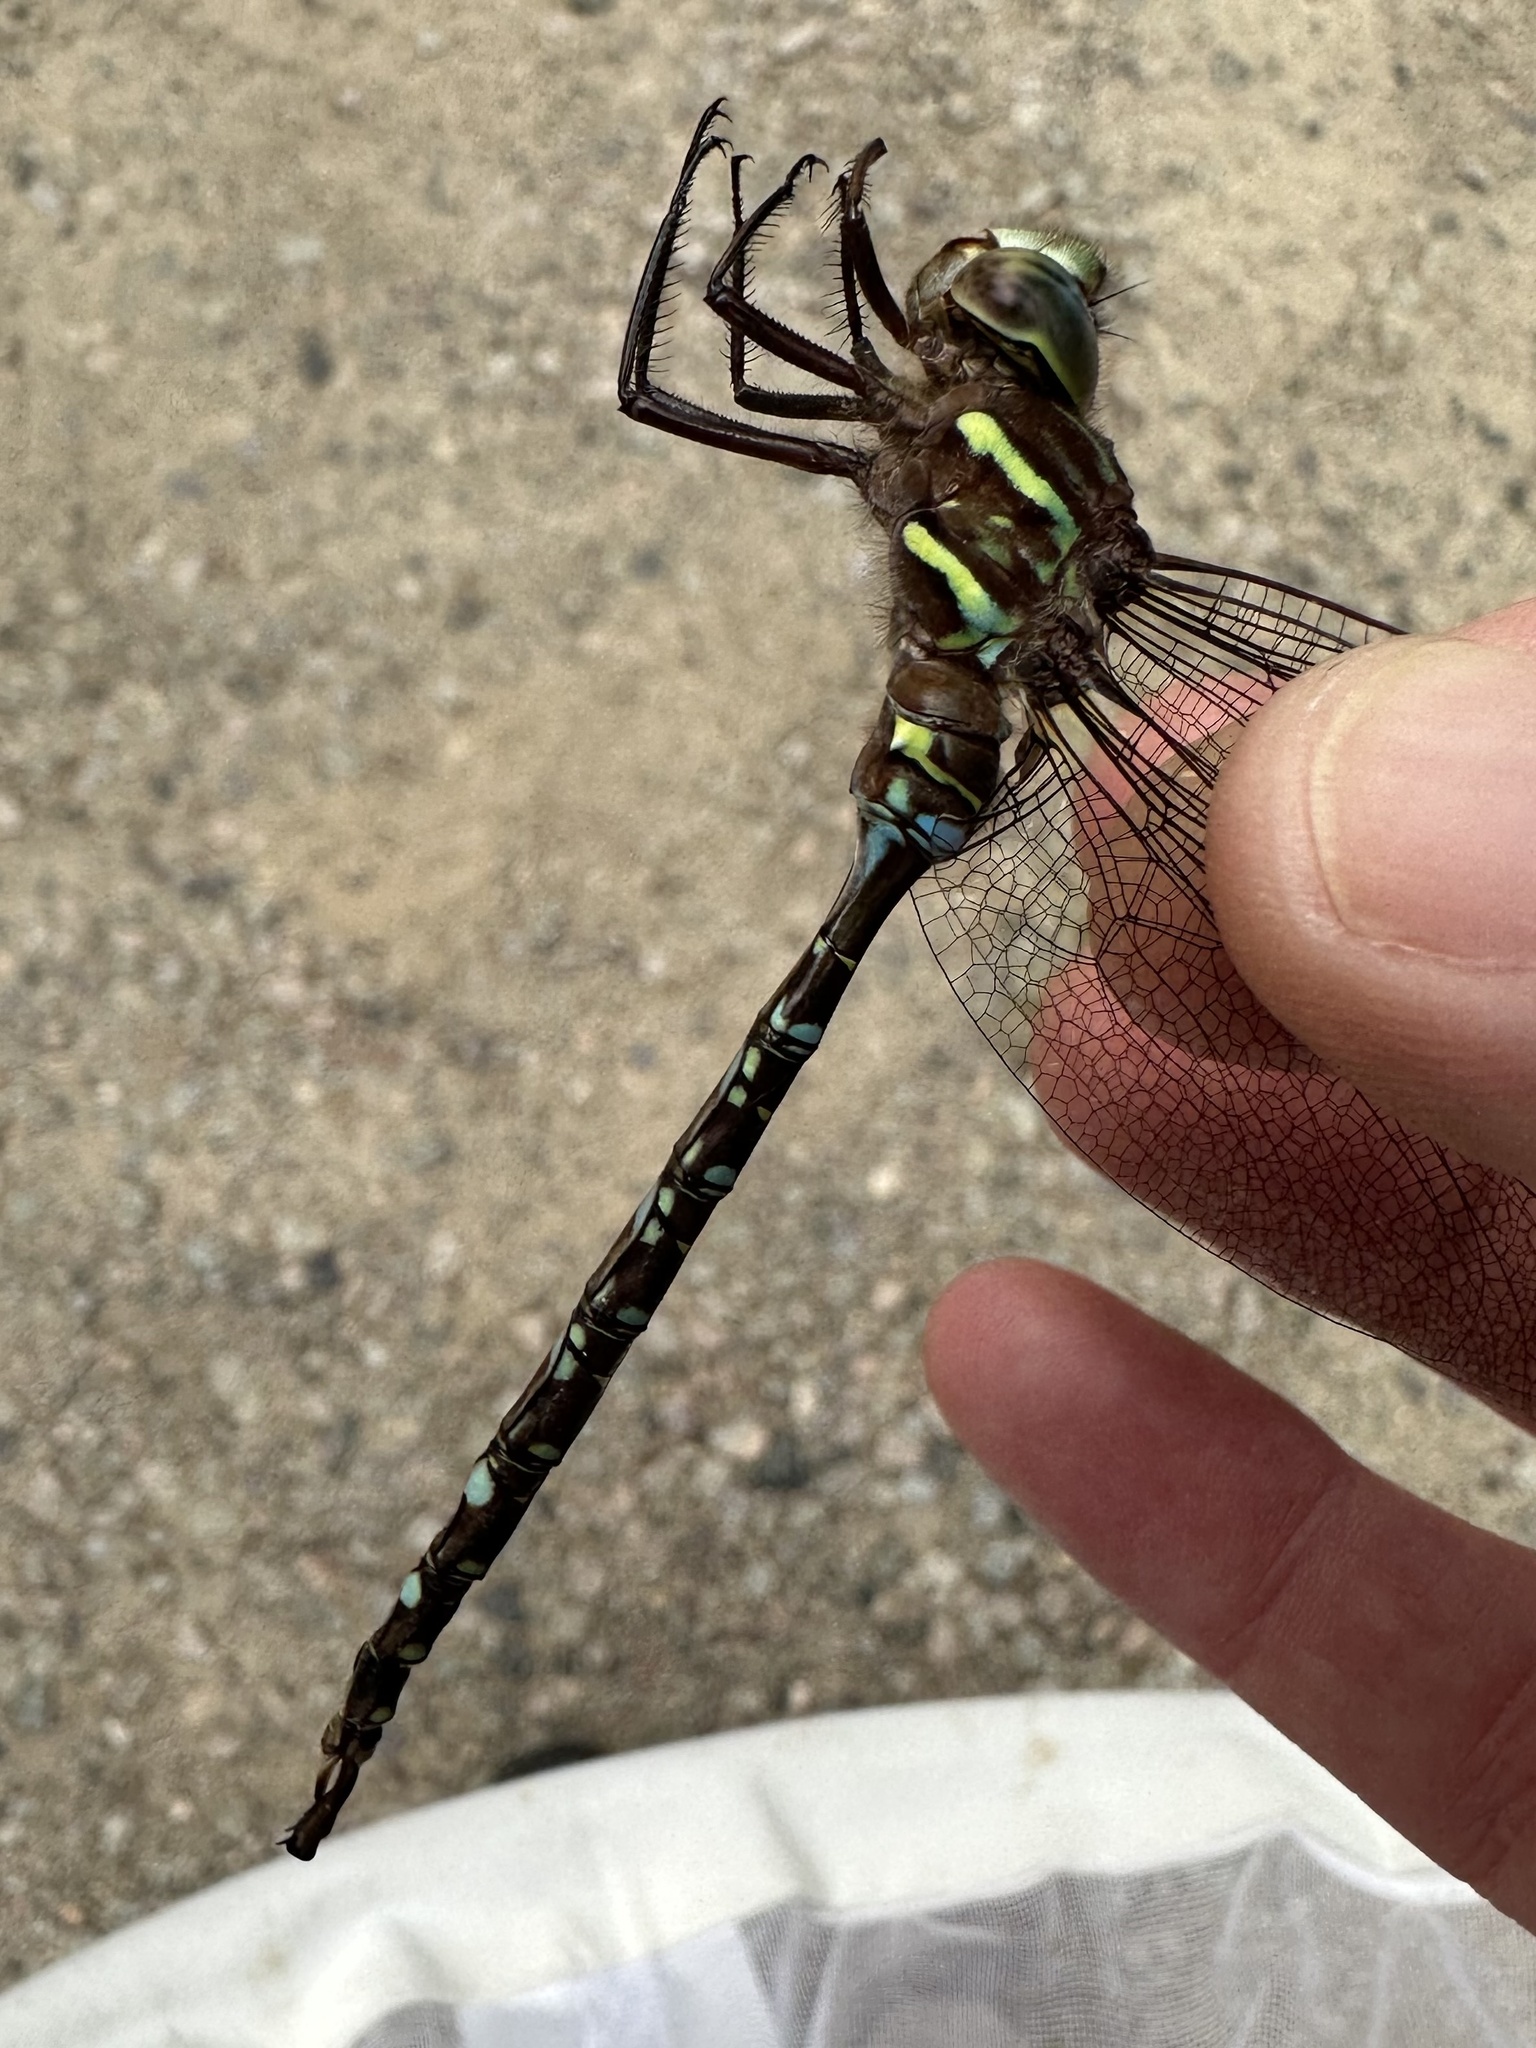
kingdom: Animalia
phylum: Arthropoda
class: Insecta
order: Odonata
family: Aeshnidae
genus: Aeshna
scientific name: Aeshna umbrosa
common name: Shadow darner
